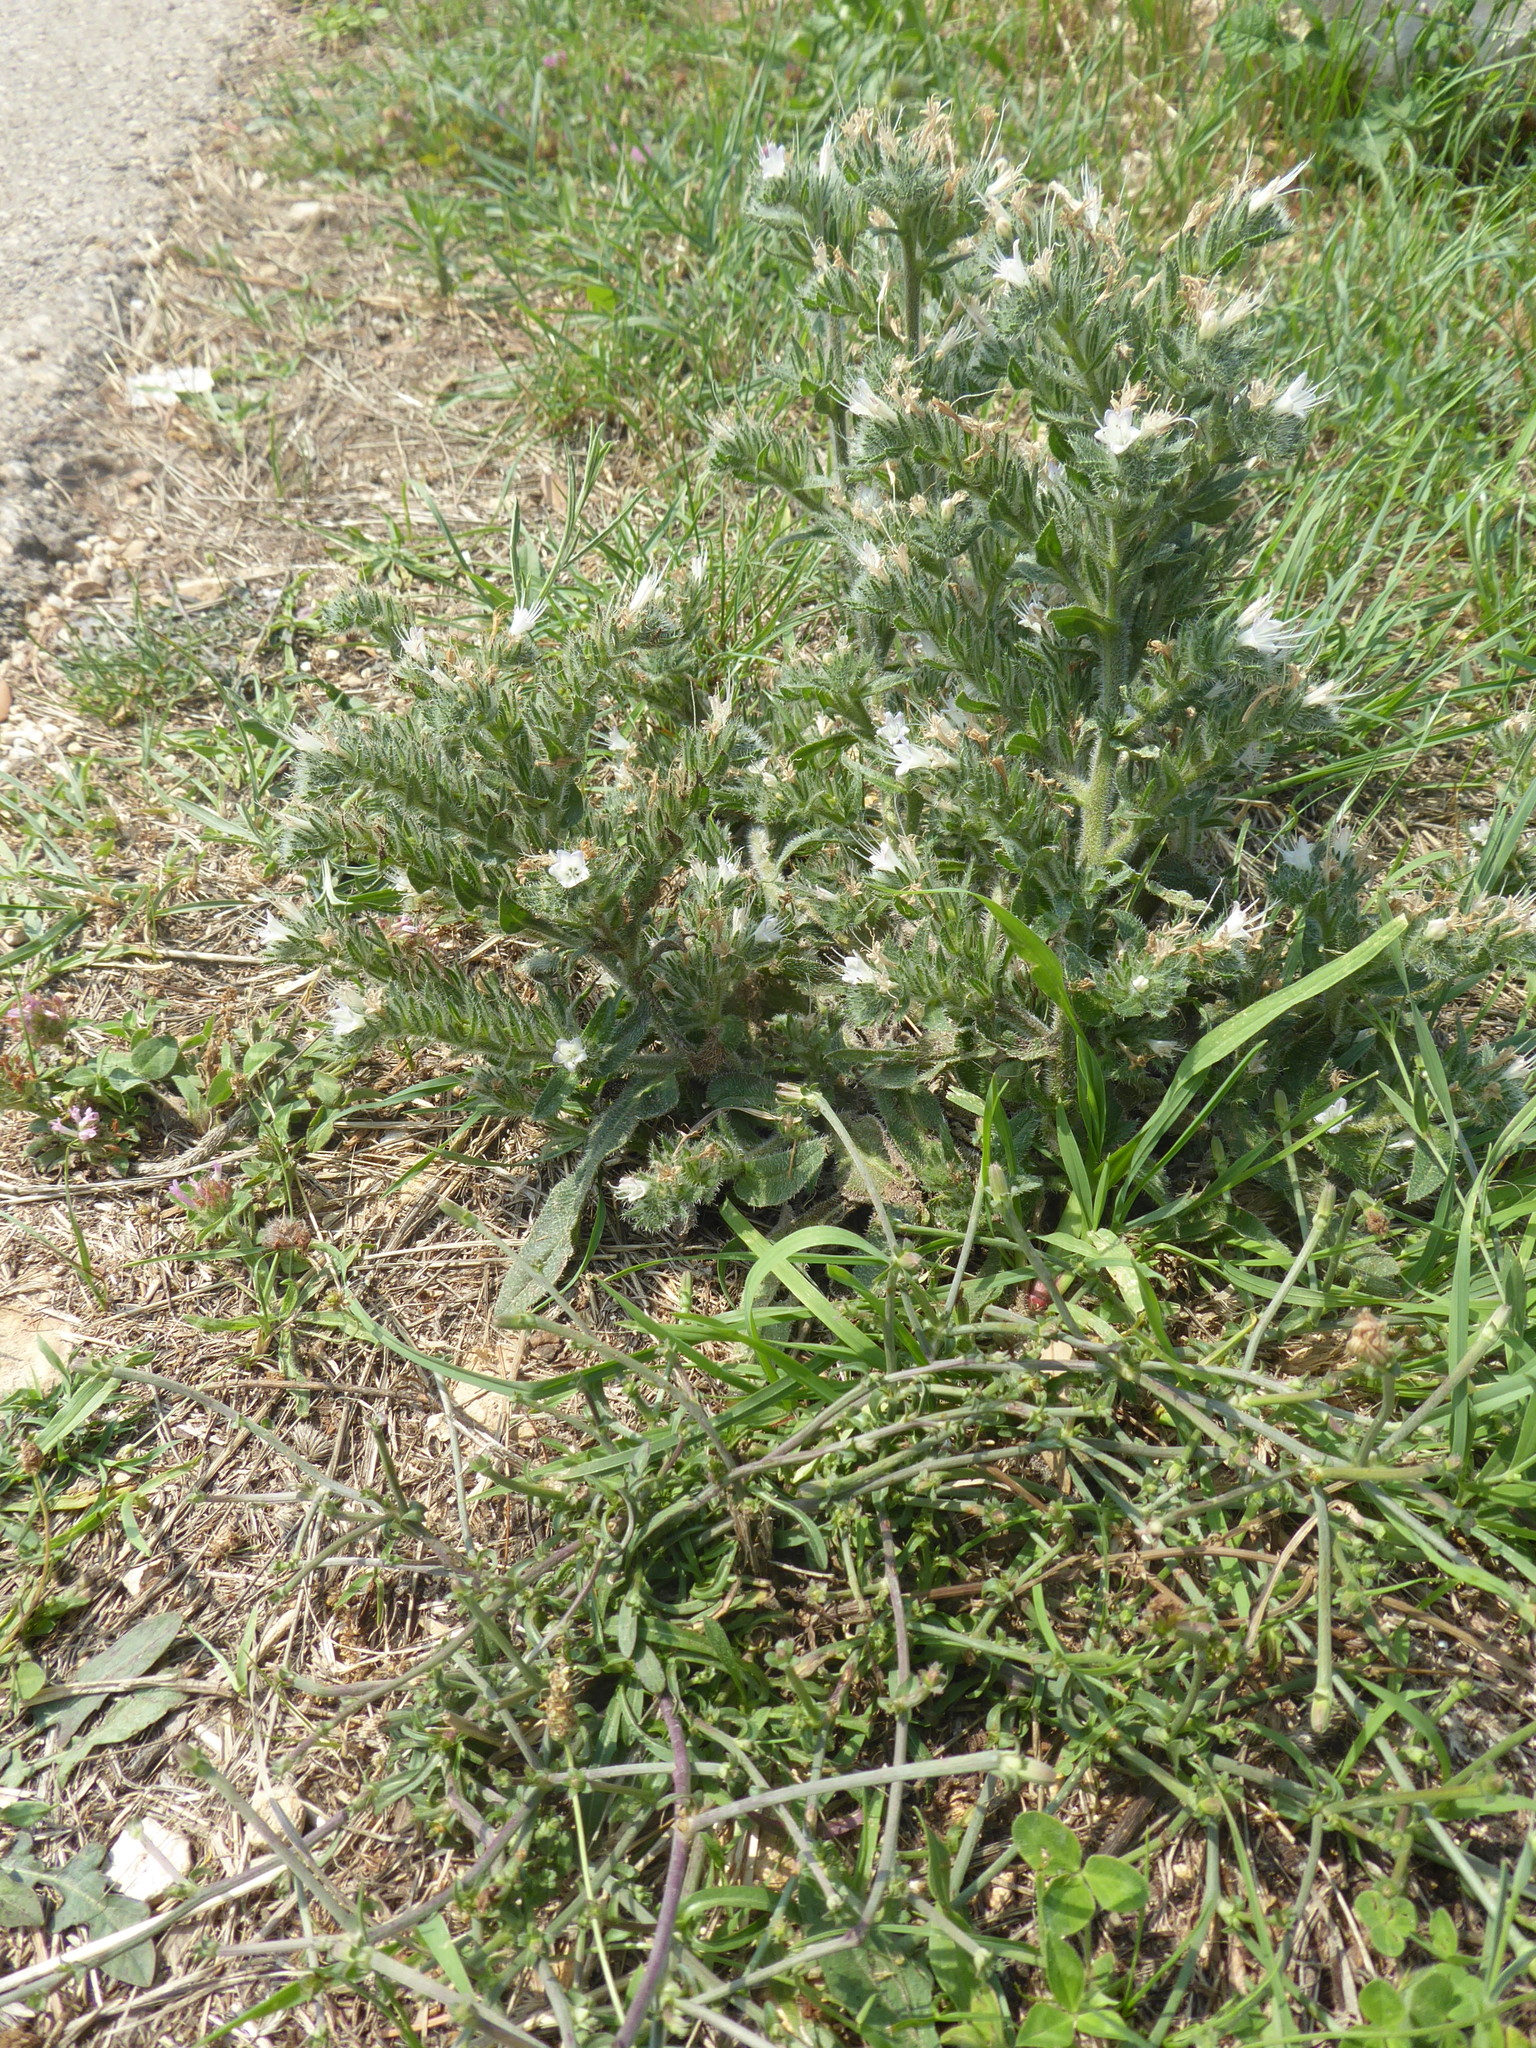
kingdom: Plantae
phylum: Tracheophyta
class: Magnoliopsida
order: Boraginales
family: Boraginaceae
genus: Echium
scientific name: Echium italicum
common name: Italian viper's bugloss
